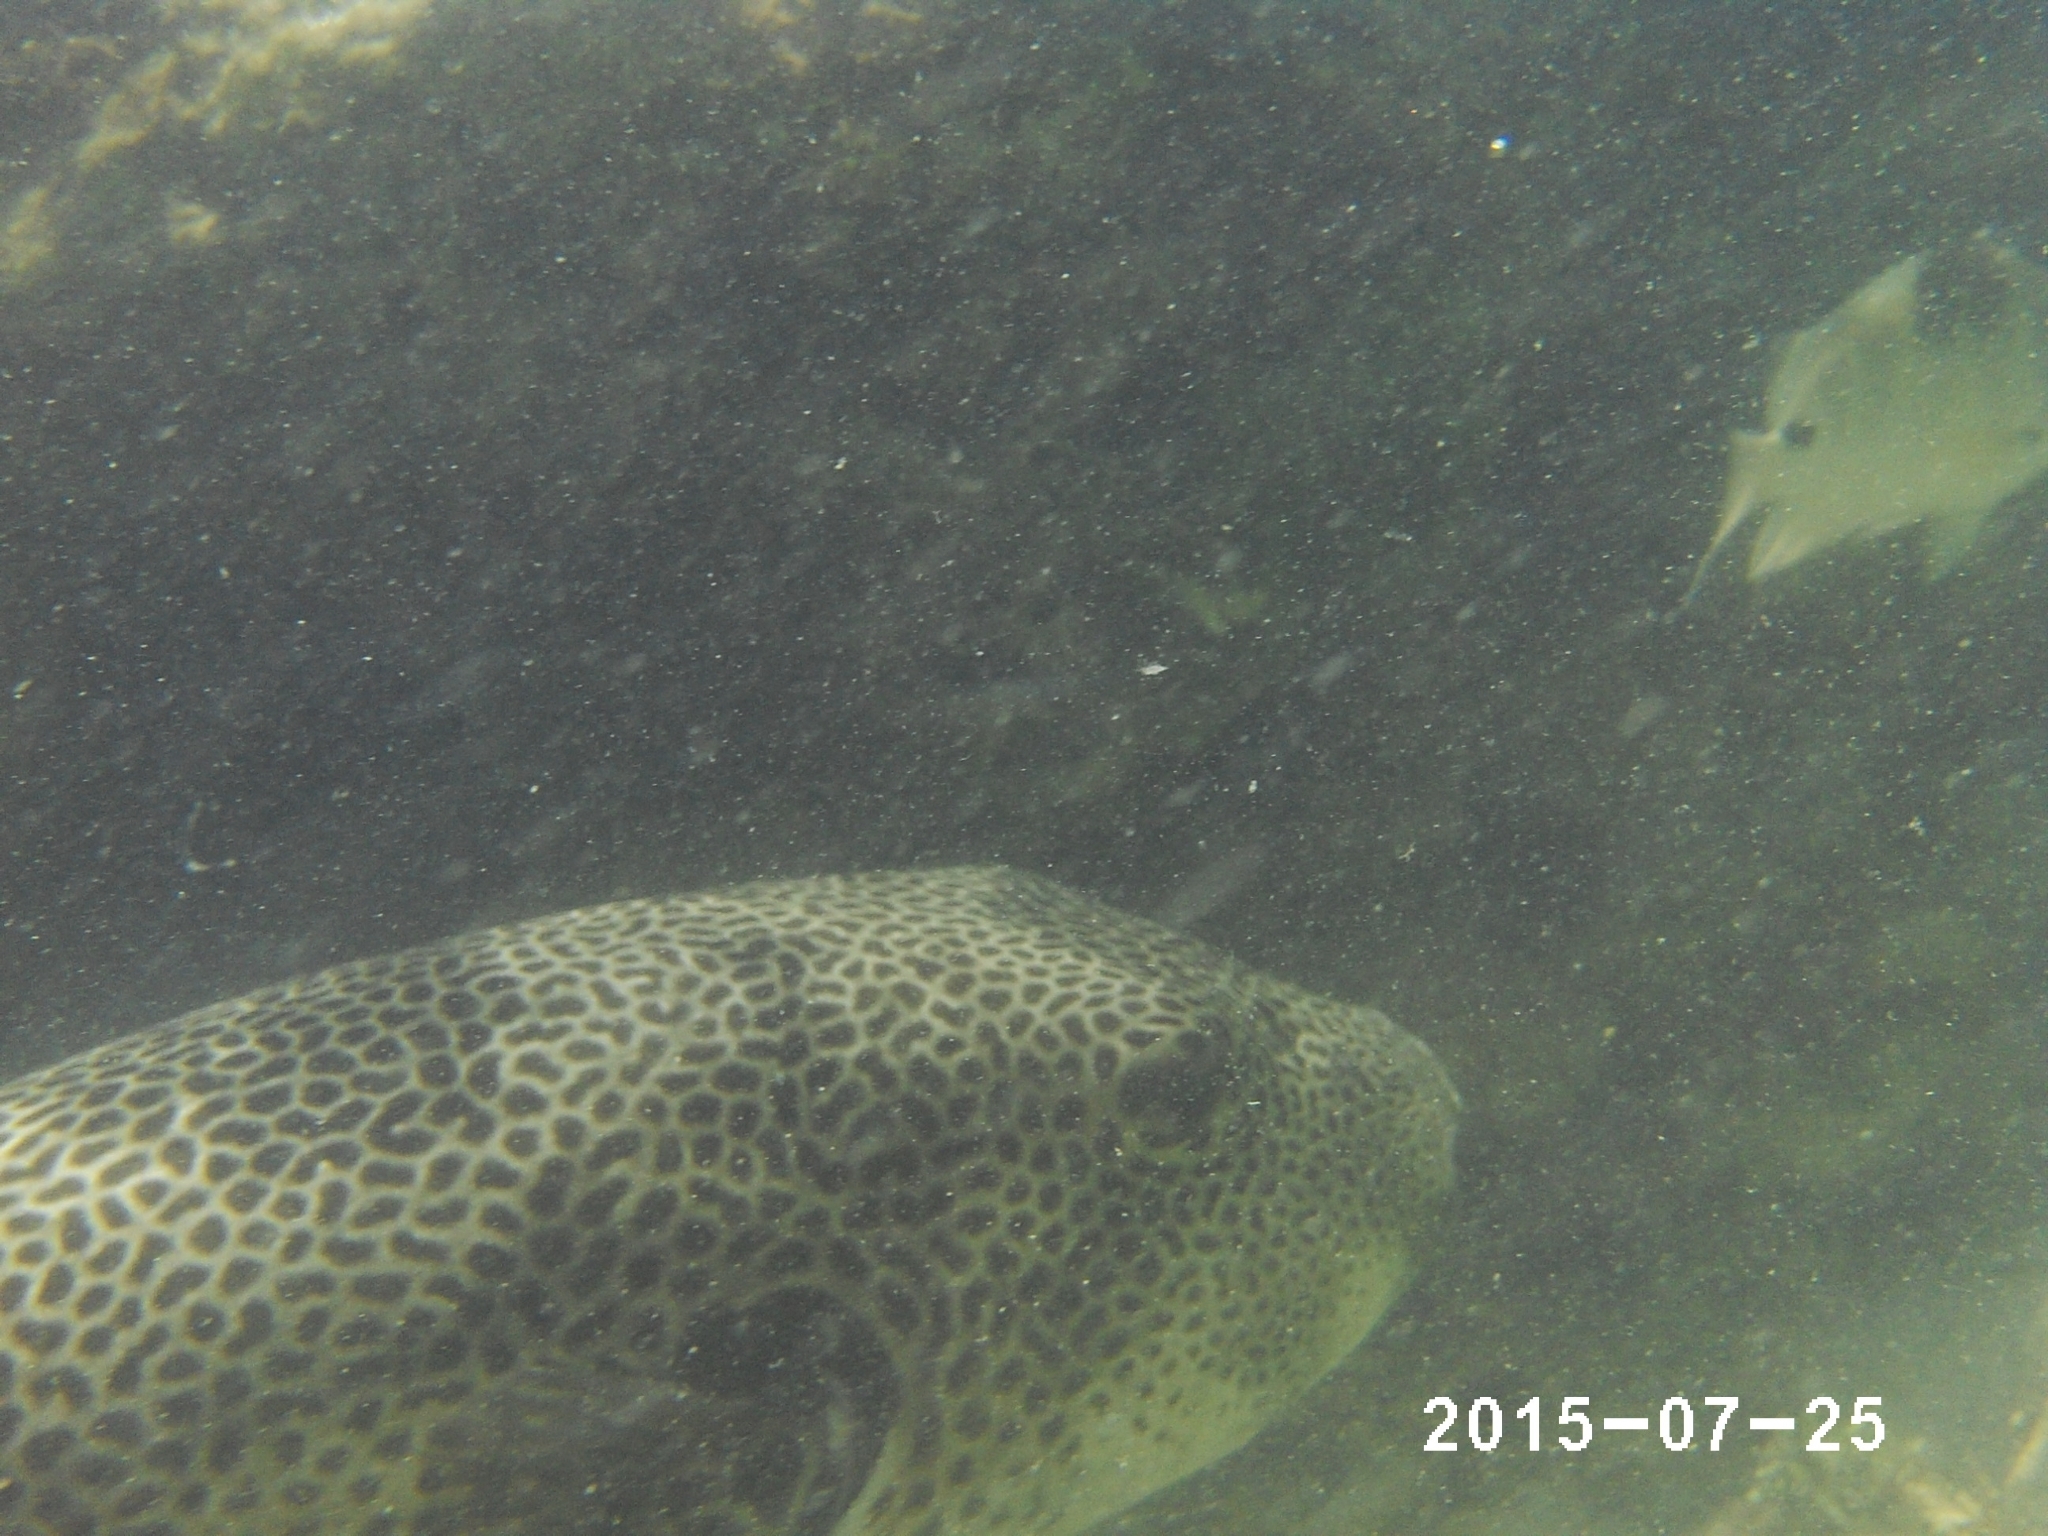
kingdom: Animalia
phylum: Chordata
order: Tetraodontiformes
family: Tetraodontidae
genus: Arothron
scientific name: Arothron stellatus
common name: Star blaasop
